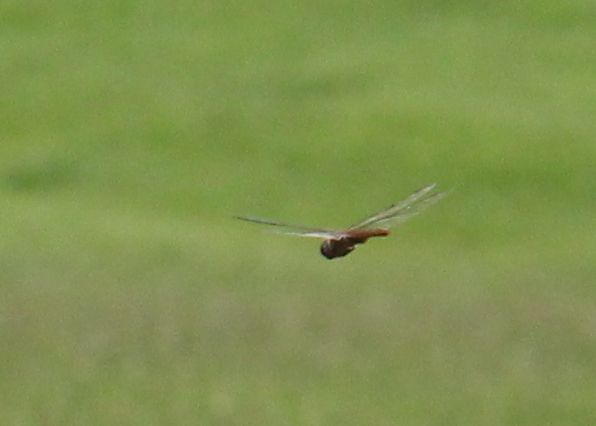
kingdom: Animalia
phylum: Arthropoda
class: Insecta
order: Odonata
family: Libellulidae
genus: Pantala
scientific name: Pantala hymenaea
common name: Spot-winged glider
